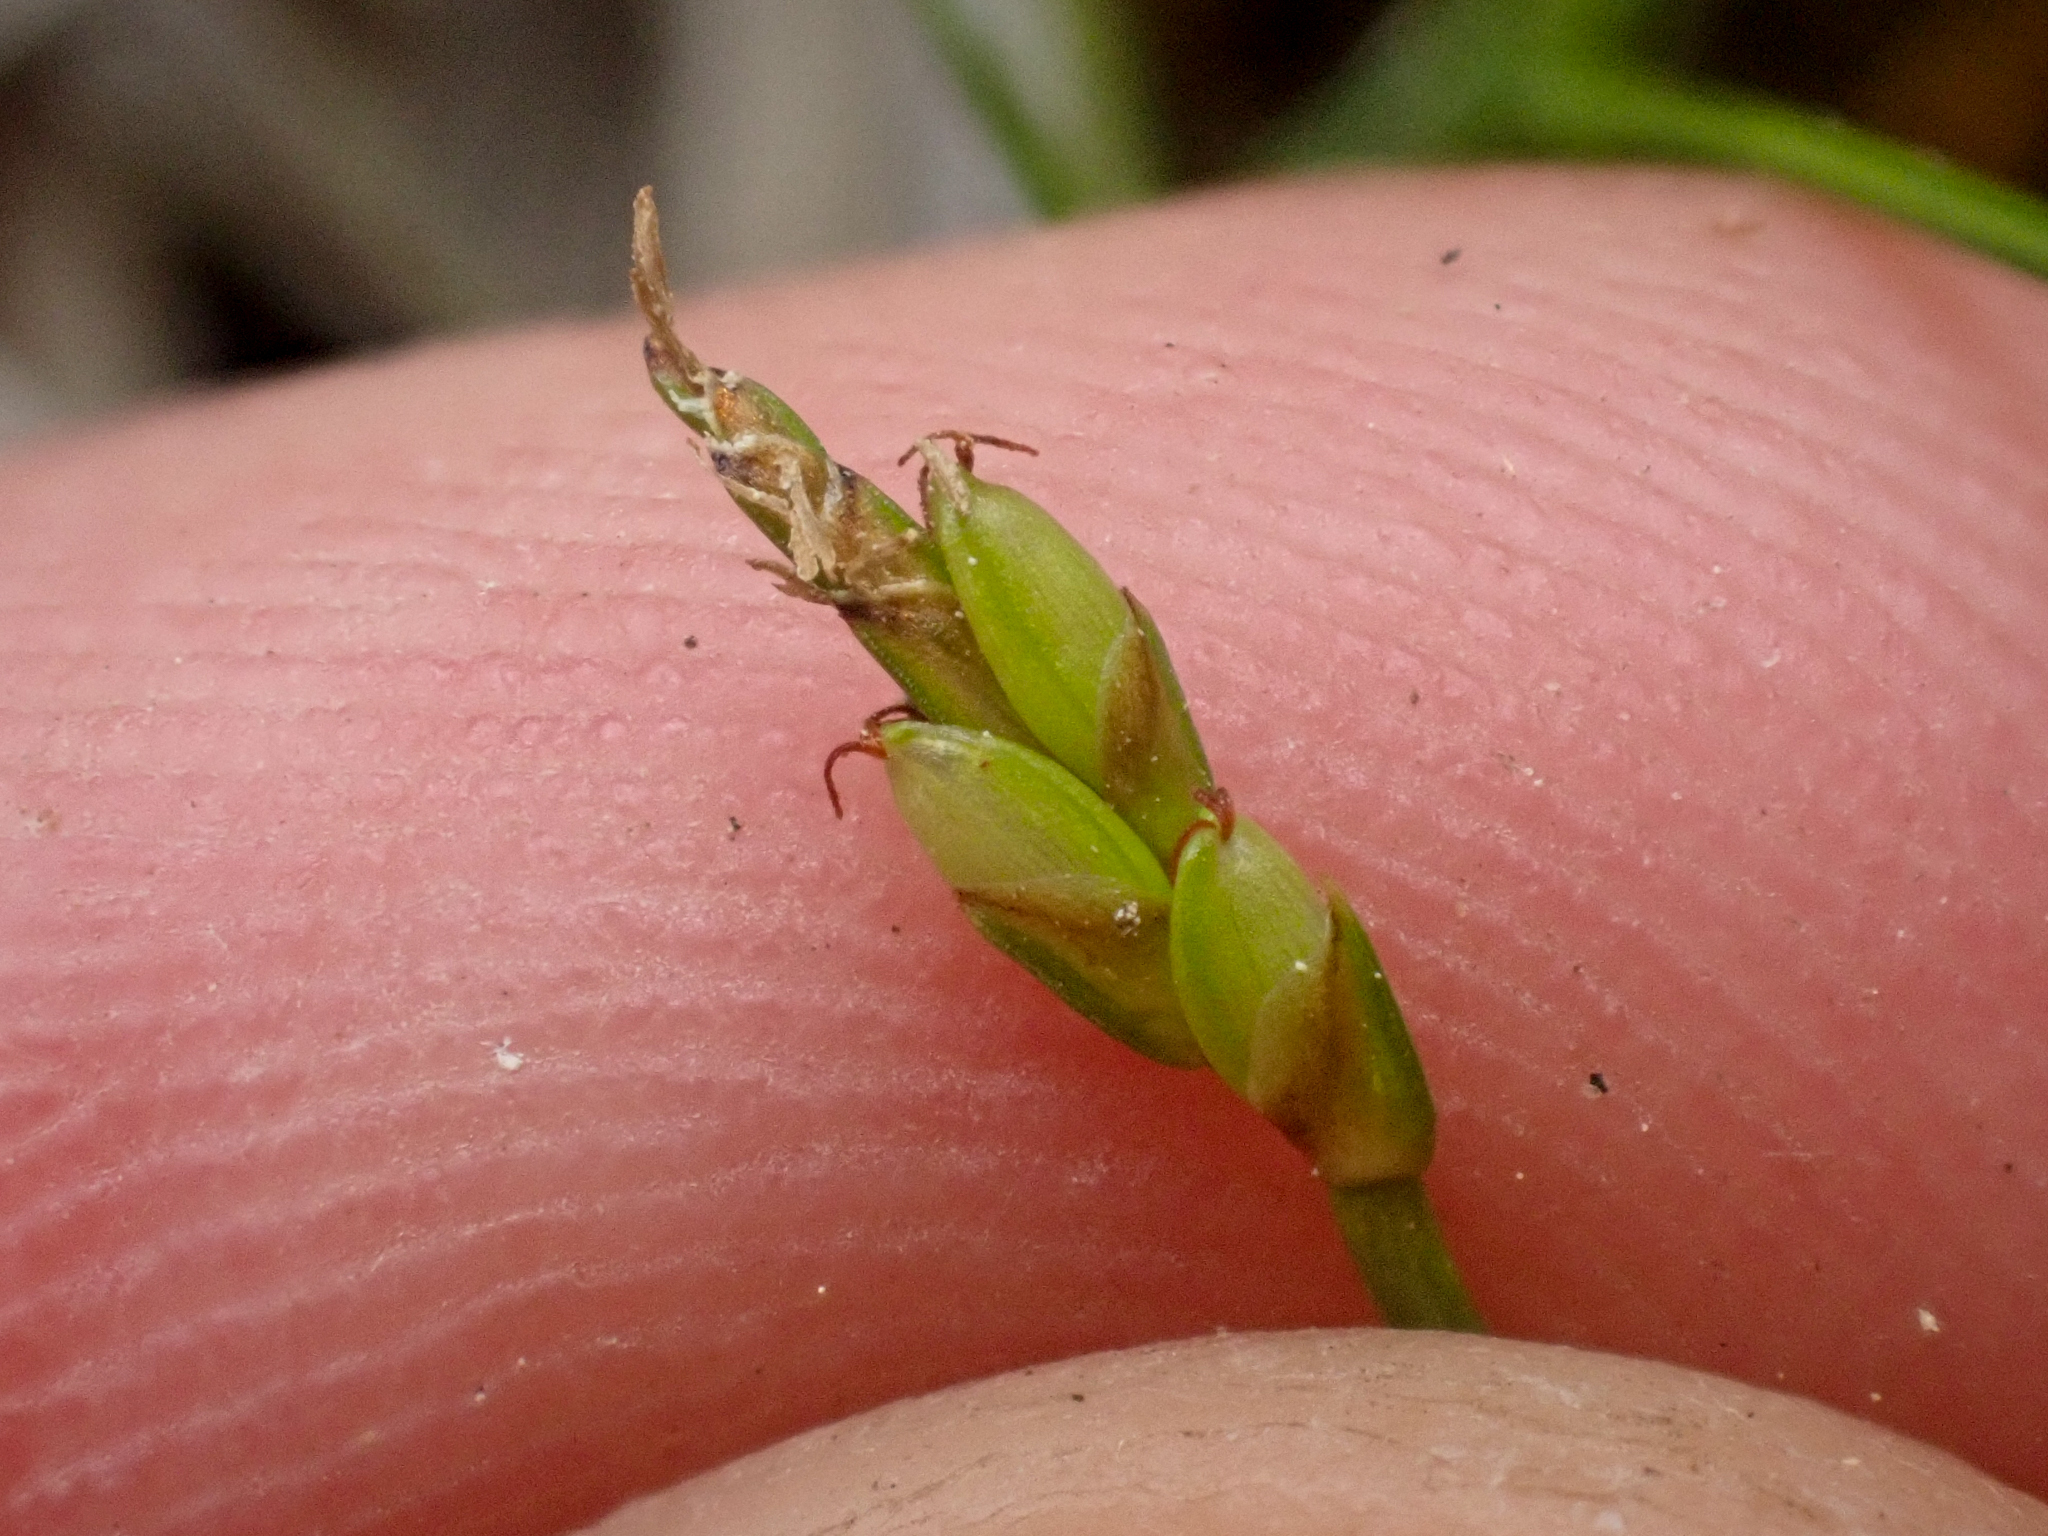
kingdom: Plantae
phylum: Tracheophyta
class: Liliopsida
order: Poales
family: Cyperaceae
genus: Carex
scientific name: Carex leptalea
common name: Bristly-stalked sedge
